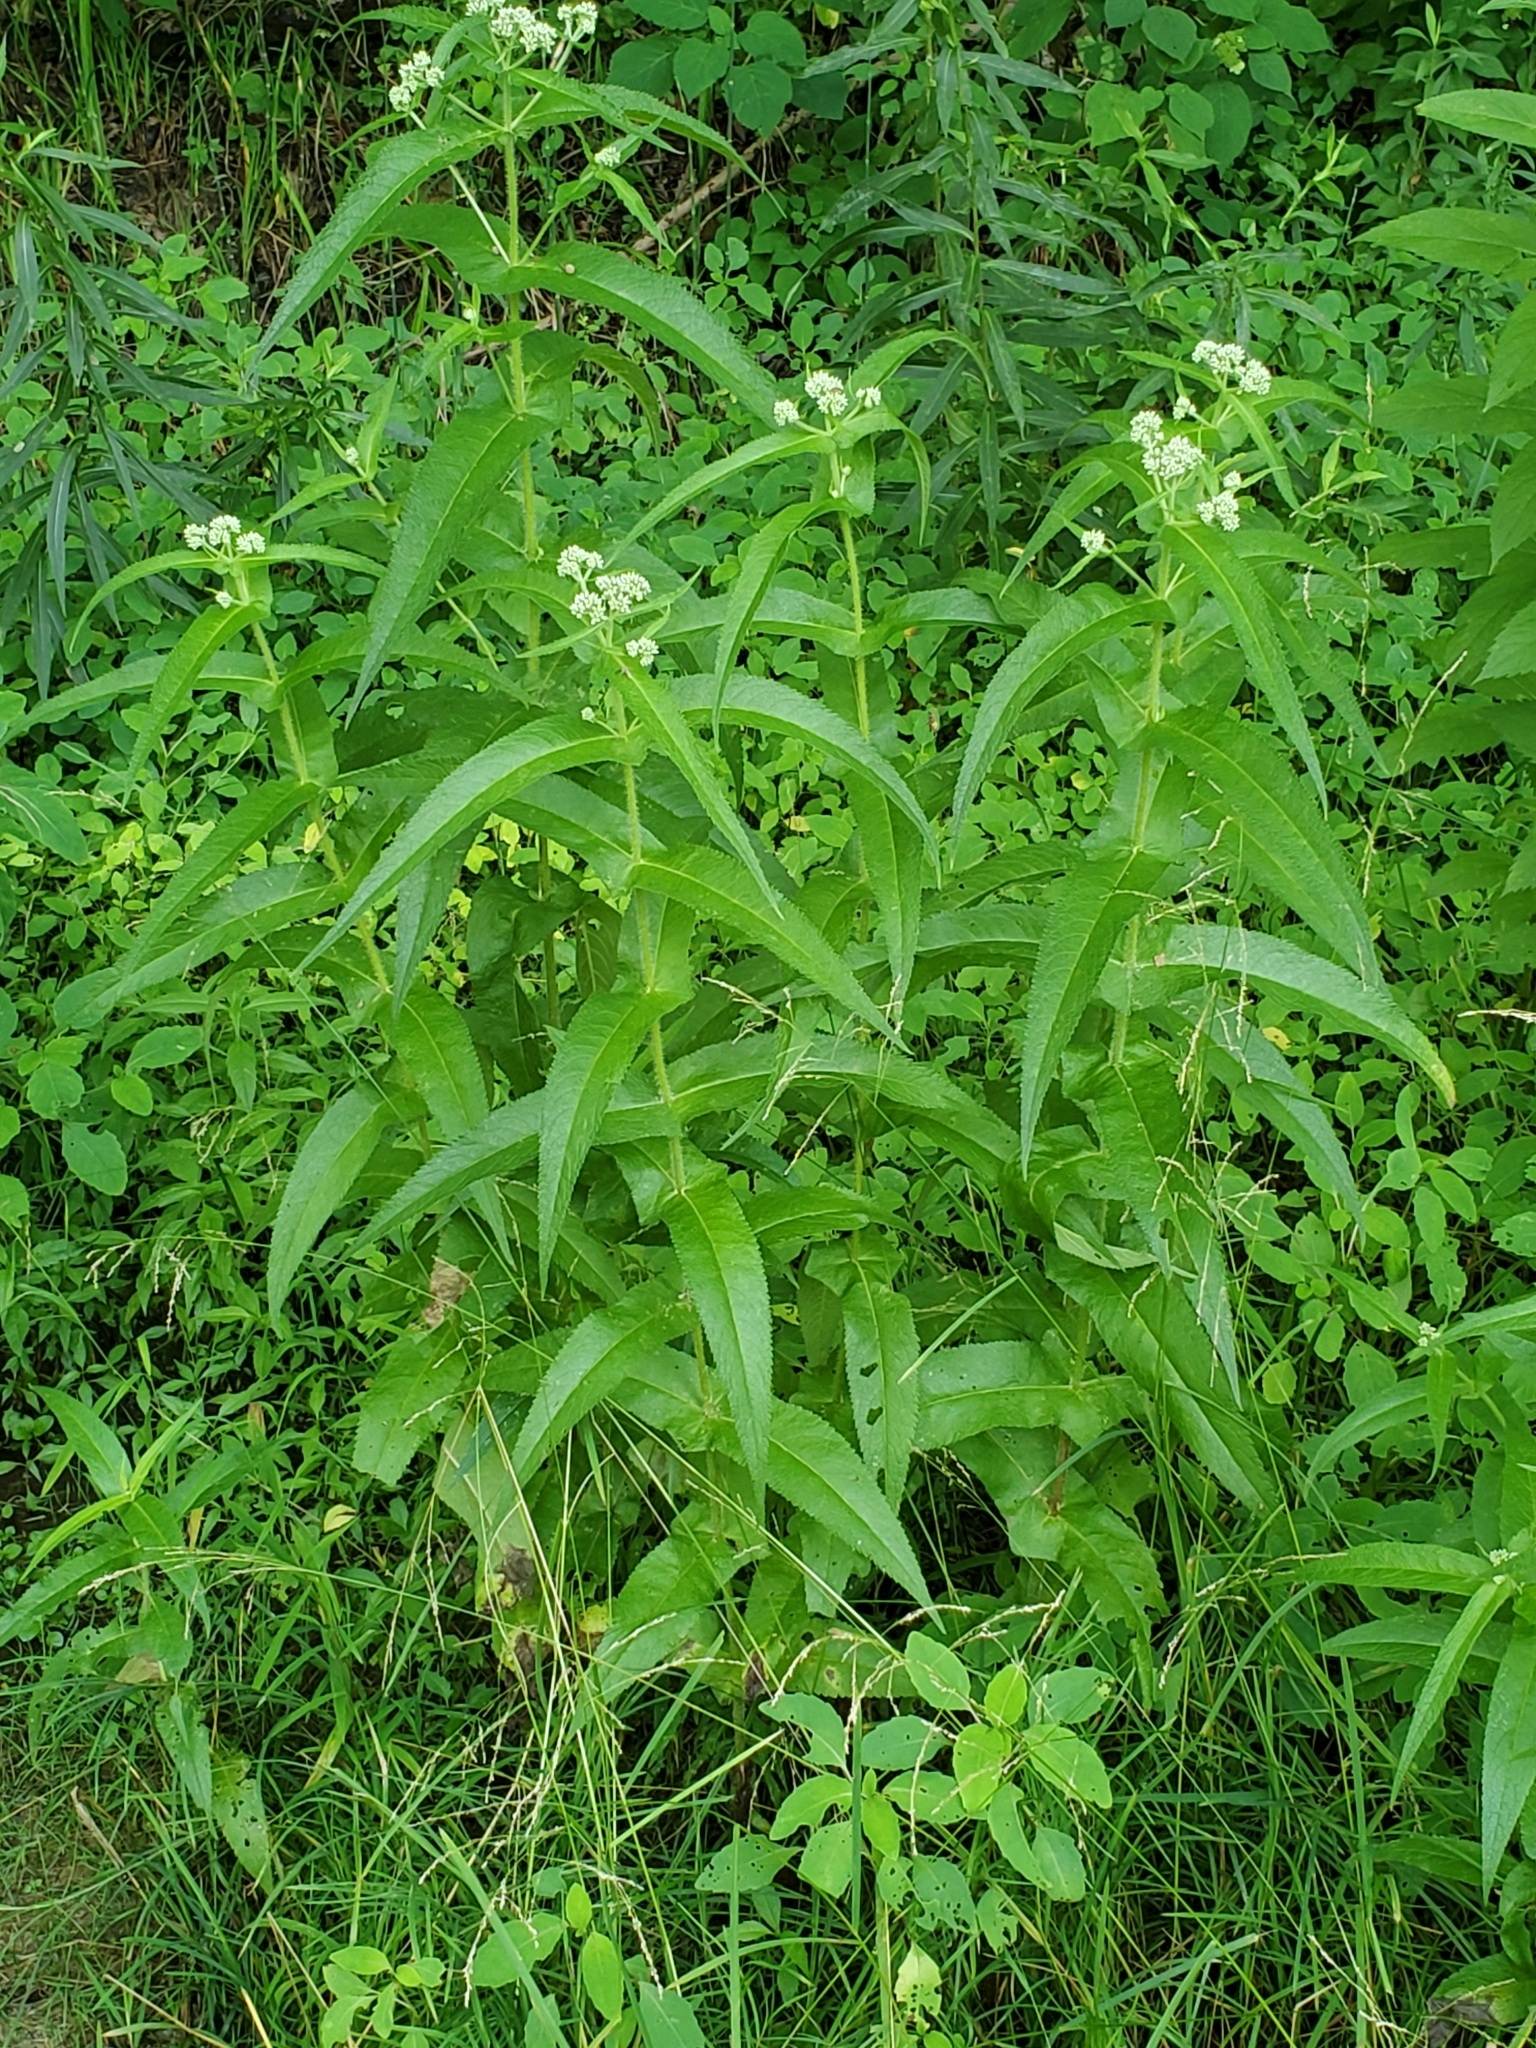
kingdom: Plantae
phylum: Tracheophyta
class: Magnoliopsida
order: Asterales
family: Asteraceae
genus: Eupatorium
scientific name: Eupatorium perfoliatum
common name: Boneset
